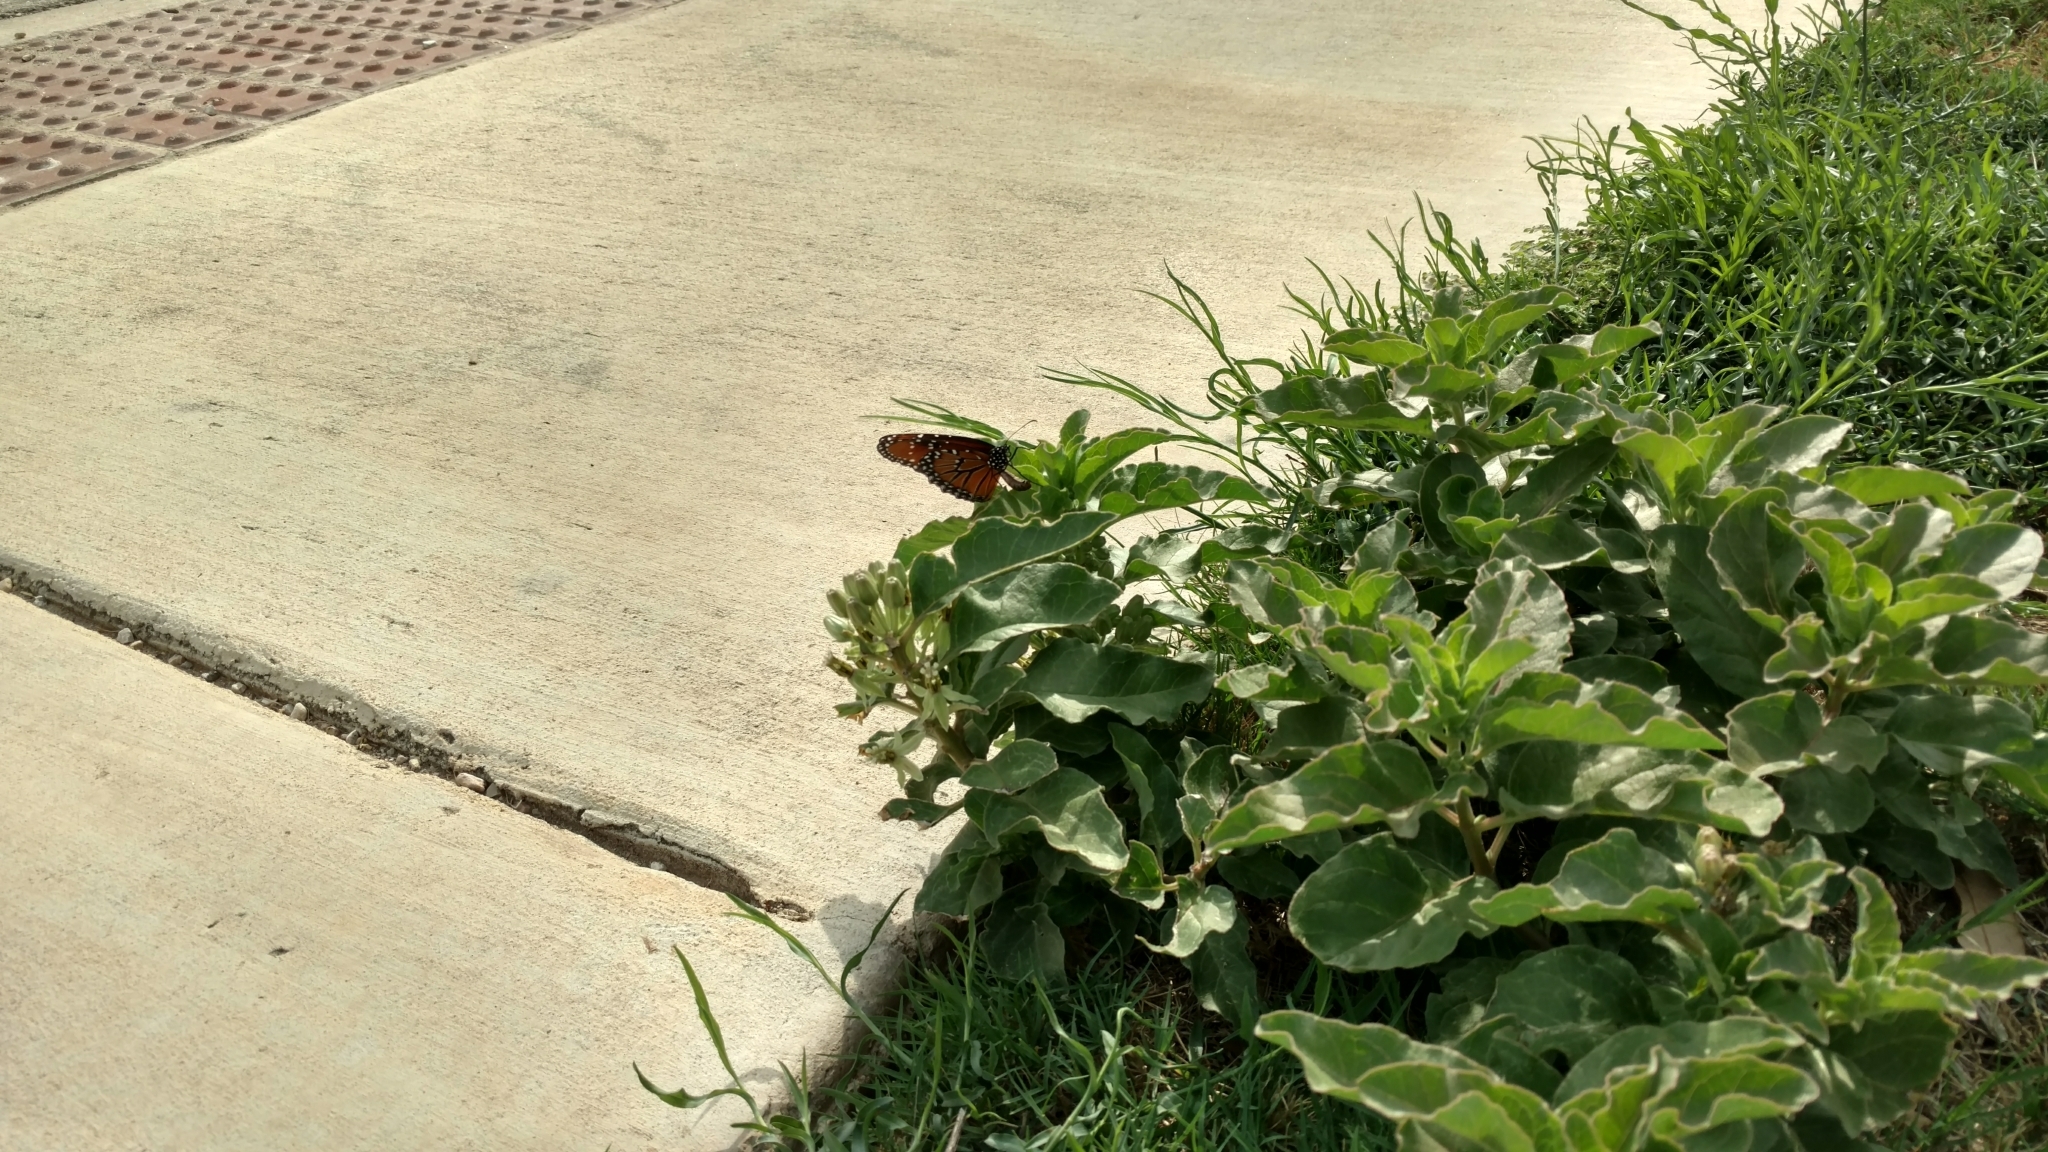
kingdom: Plantae
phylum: Tracheophyta
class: Magnoliopsida
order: Gentianales
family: Apocynaceae
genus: Asclepias
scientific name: Asclepias oenotheroides
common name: Zizotes milkweed
